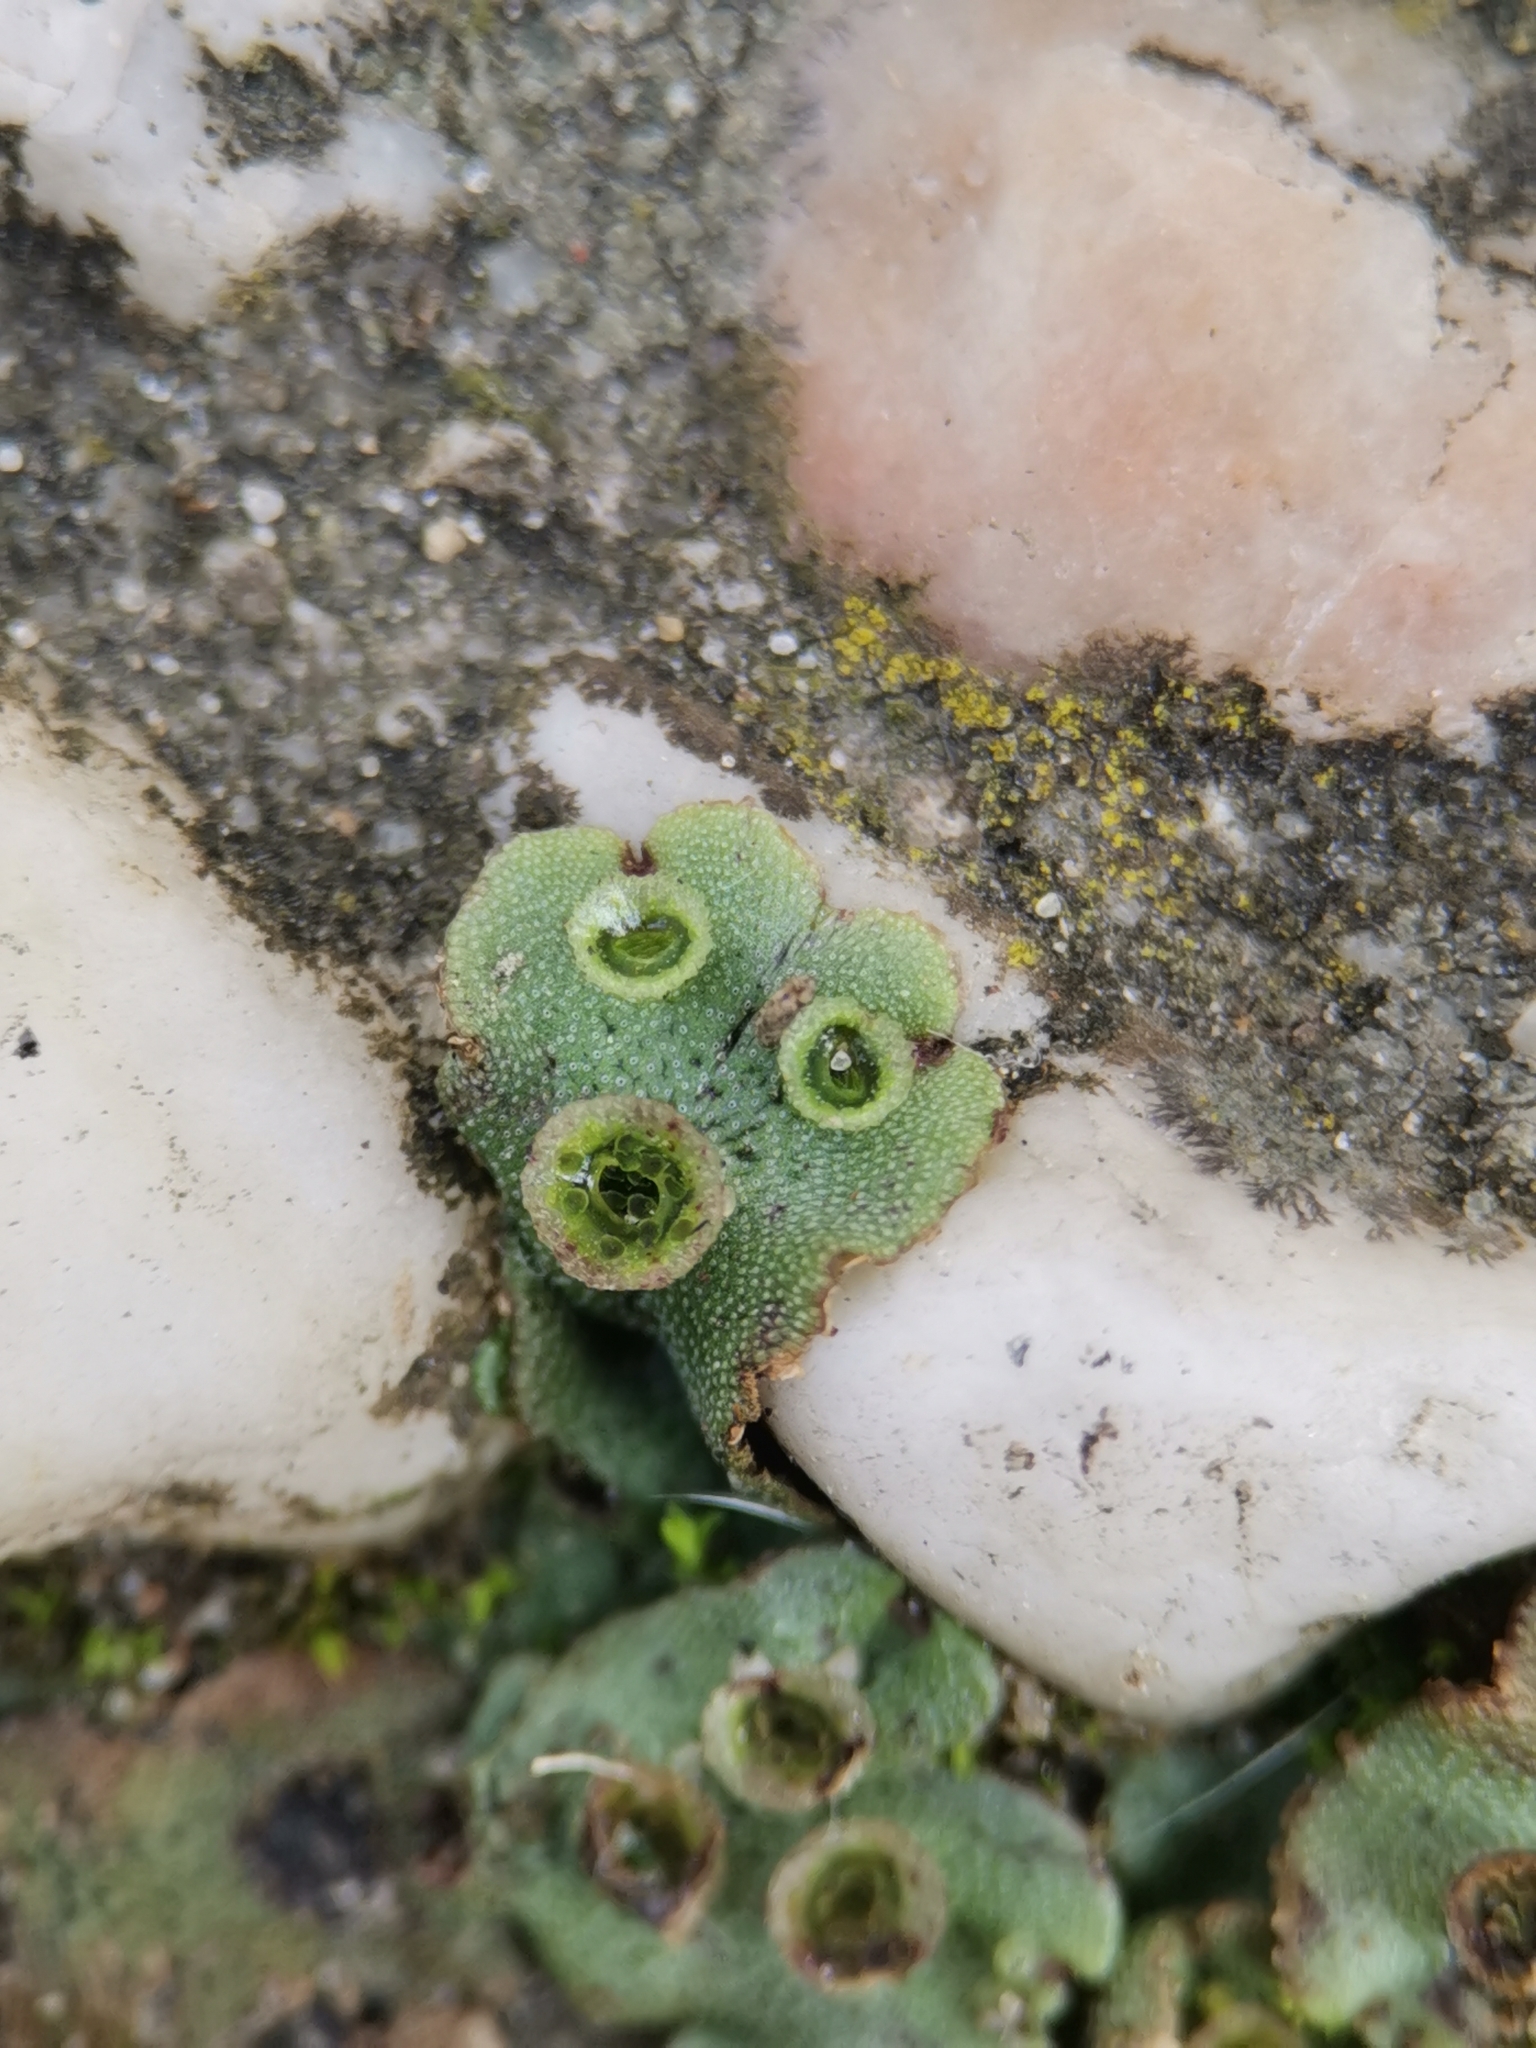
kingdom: Plantae
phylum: Marchantiophyta
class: Marchantiopsida
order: Marchantiales
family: Marchantiaceae
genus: Marchantia
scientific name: Marchantia polymorpha
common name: Common liverwort
